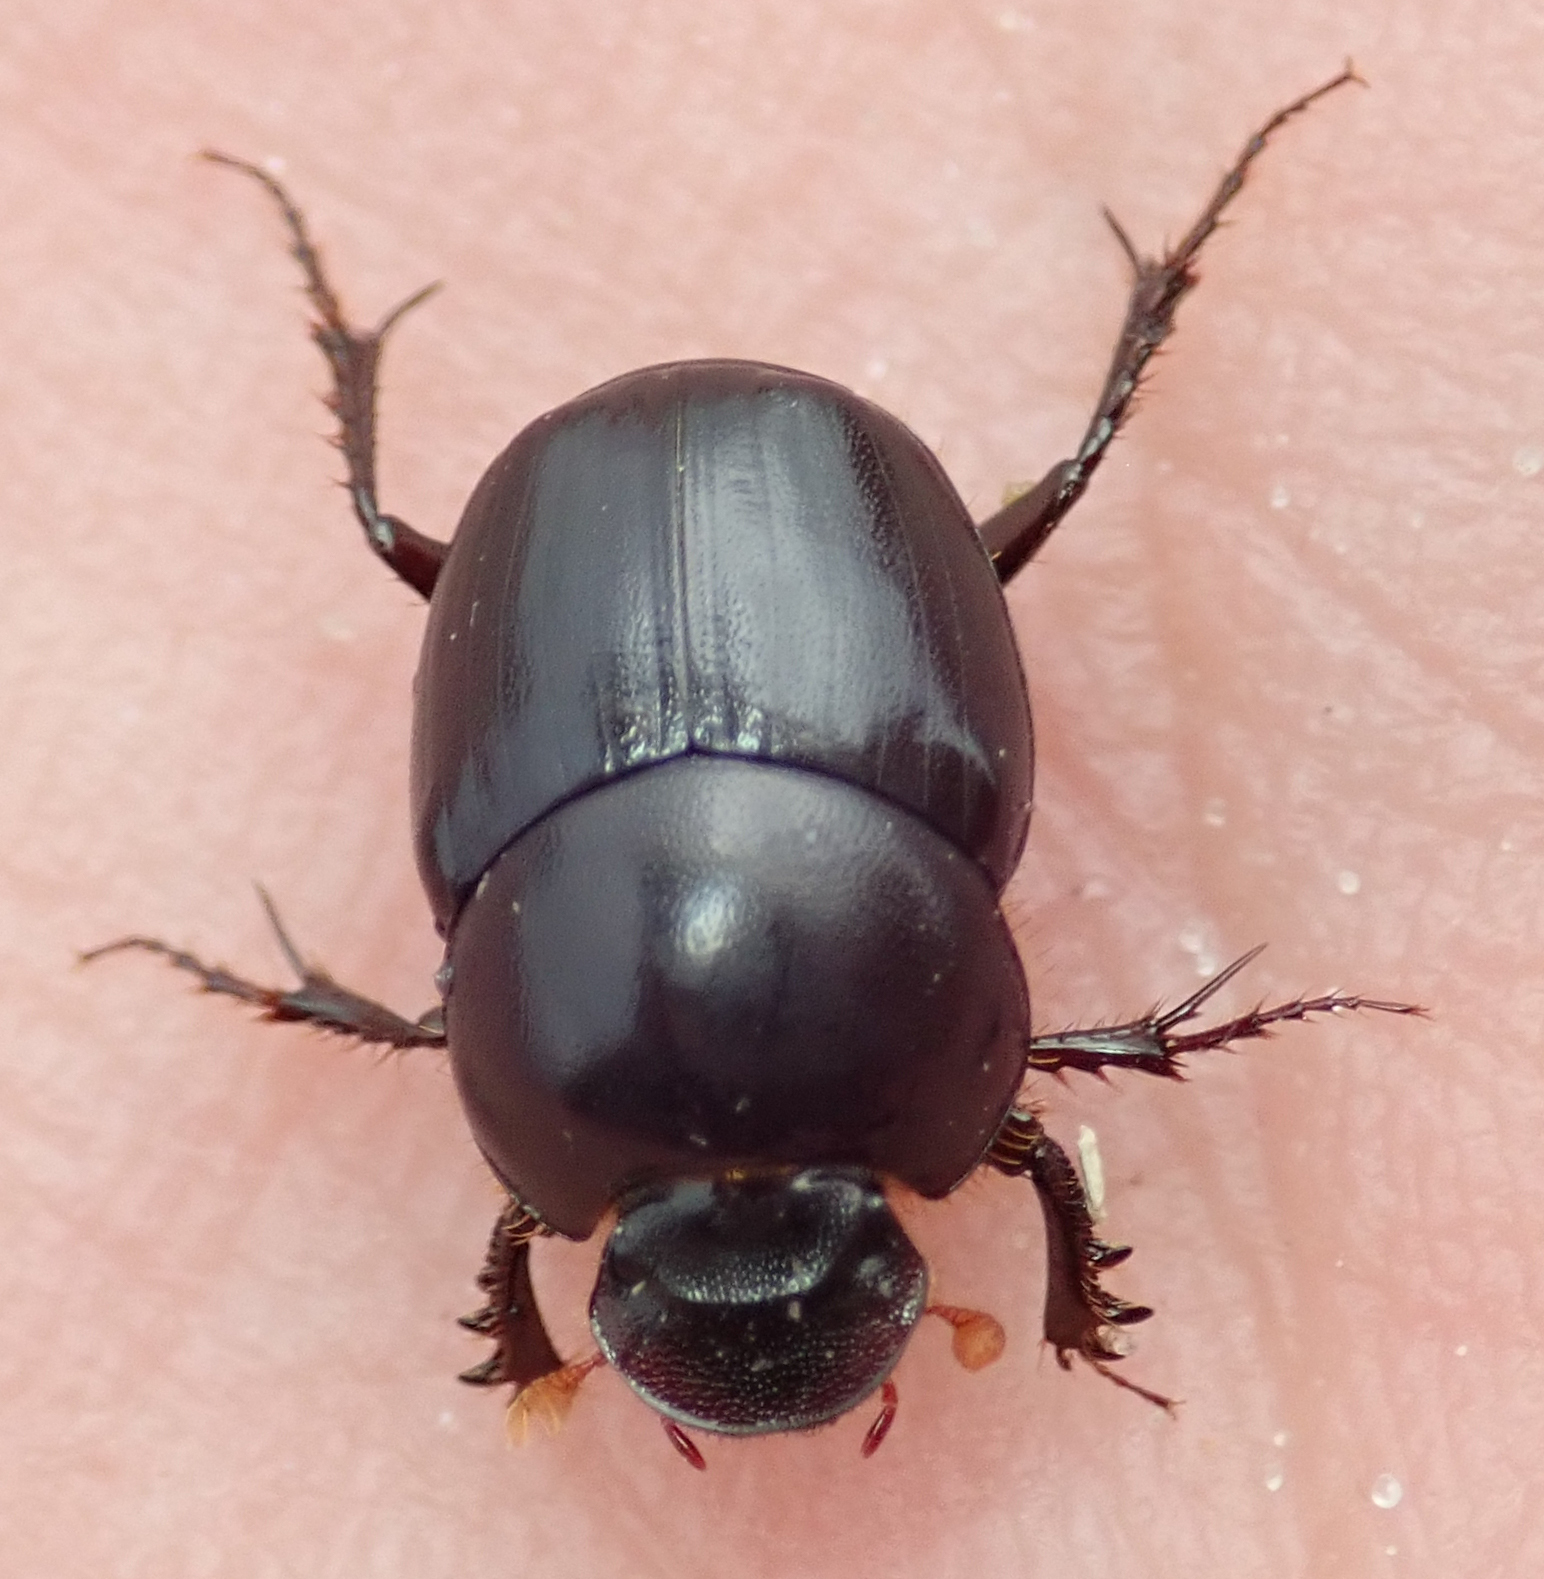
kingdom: Animalia
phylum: Arthropoda
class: Insecta
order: Coleoptera
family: Scarabaeidae
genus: Euonthophagus
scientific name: Euonthophagus carbonarius
